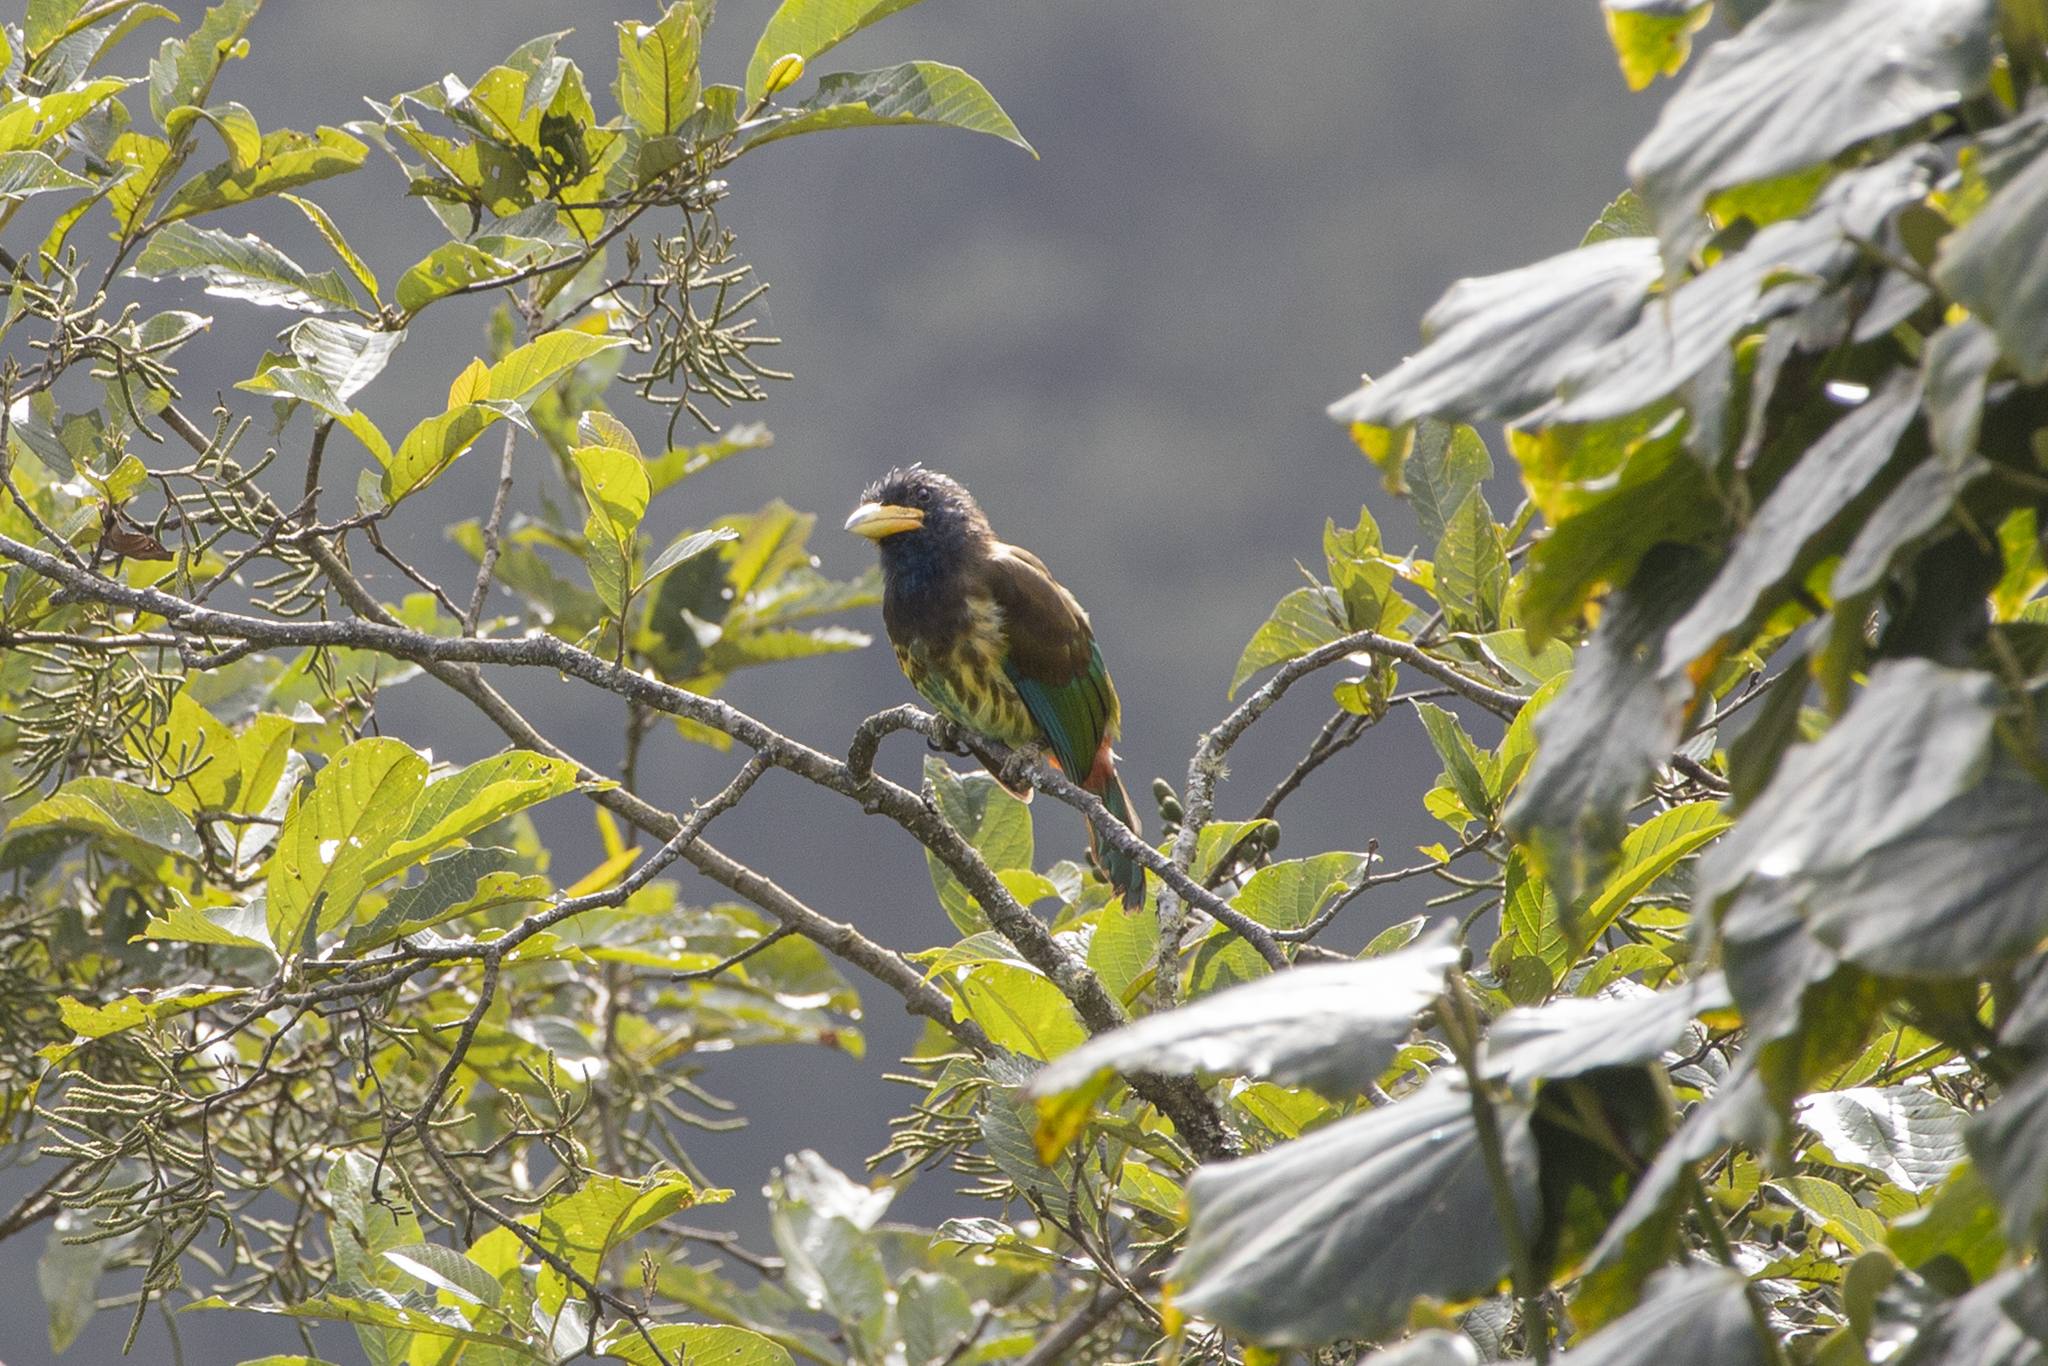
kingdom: Animalia
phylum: Chordata
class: Aves
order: Piciformes
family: Megalaimidae
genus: Psilopogon
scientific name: Psilopogon virens
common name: Great barbet
